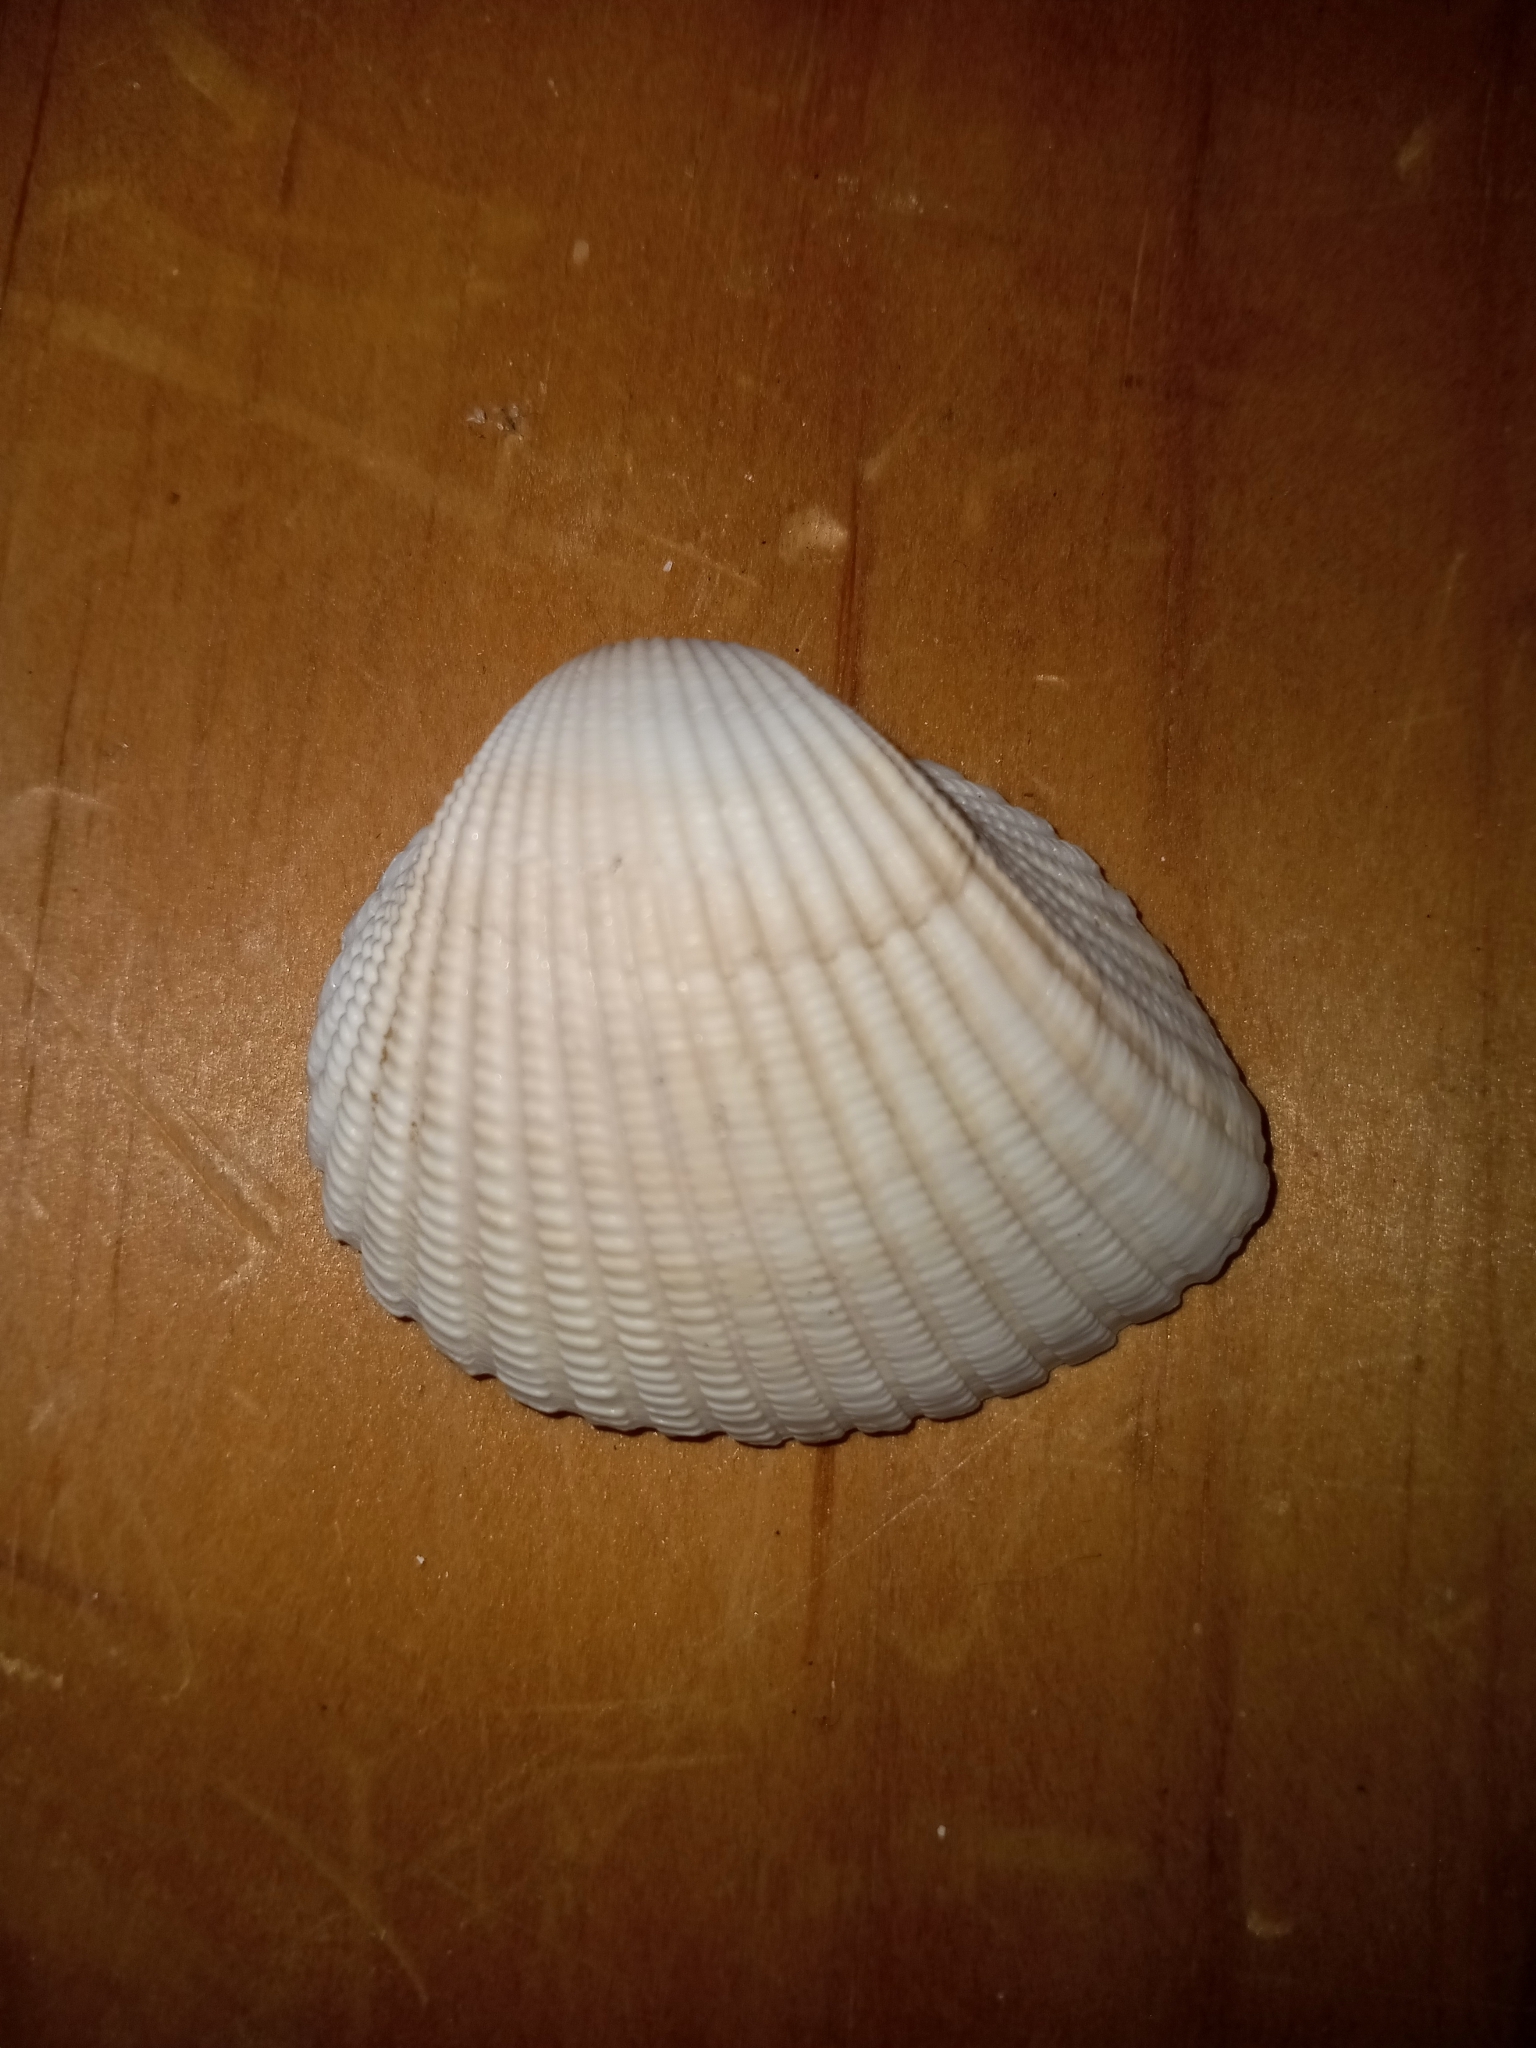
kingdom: Animalia
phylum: Mollusca
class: Bivalvia
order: Arcida
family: Arcidae
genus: Anadara
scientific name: Anadara brasiliana
